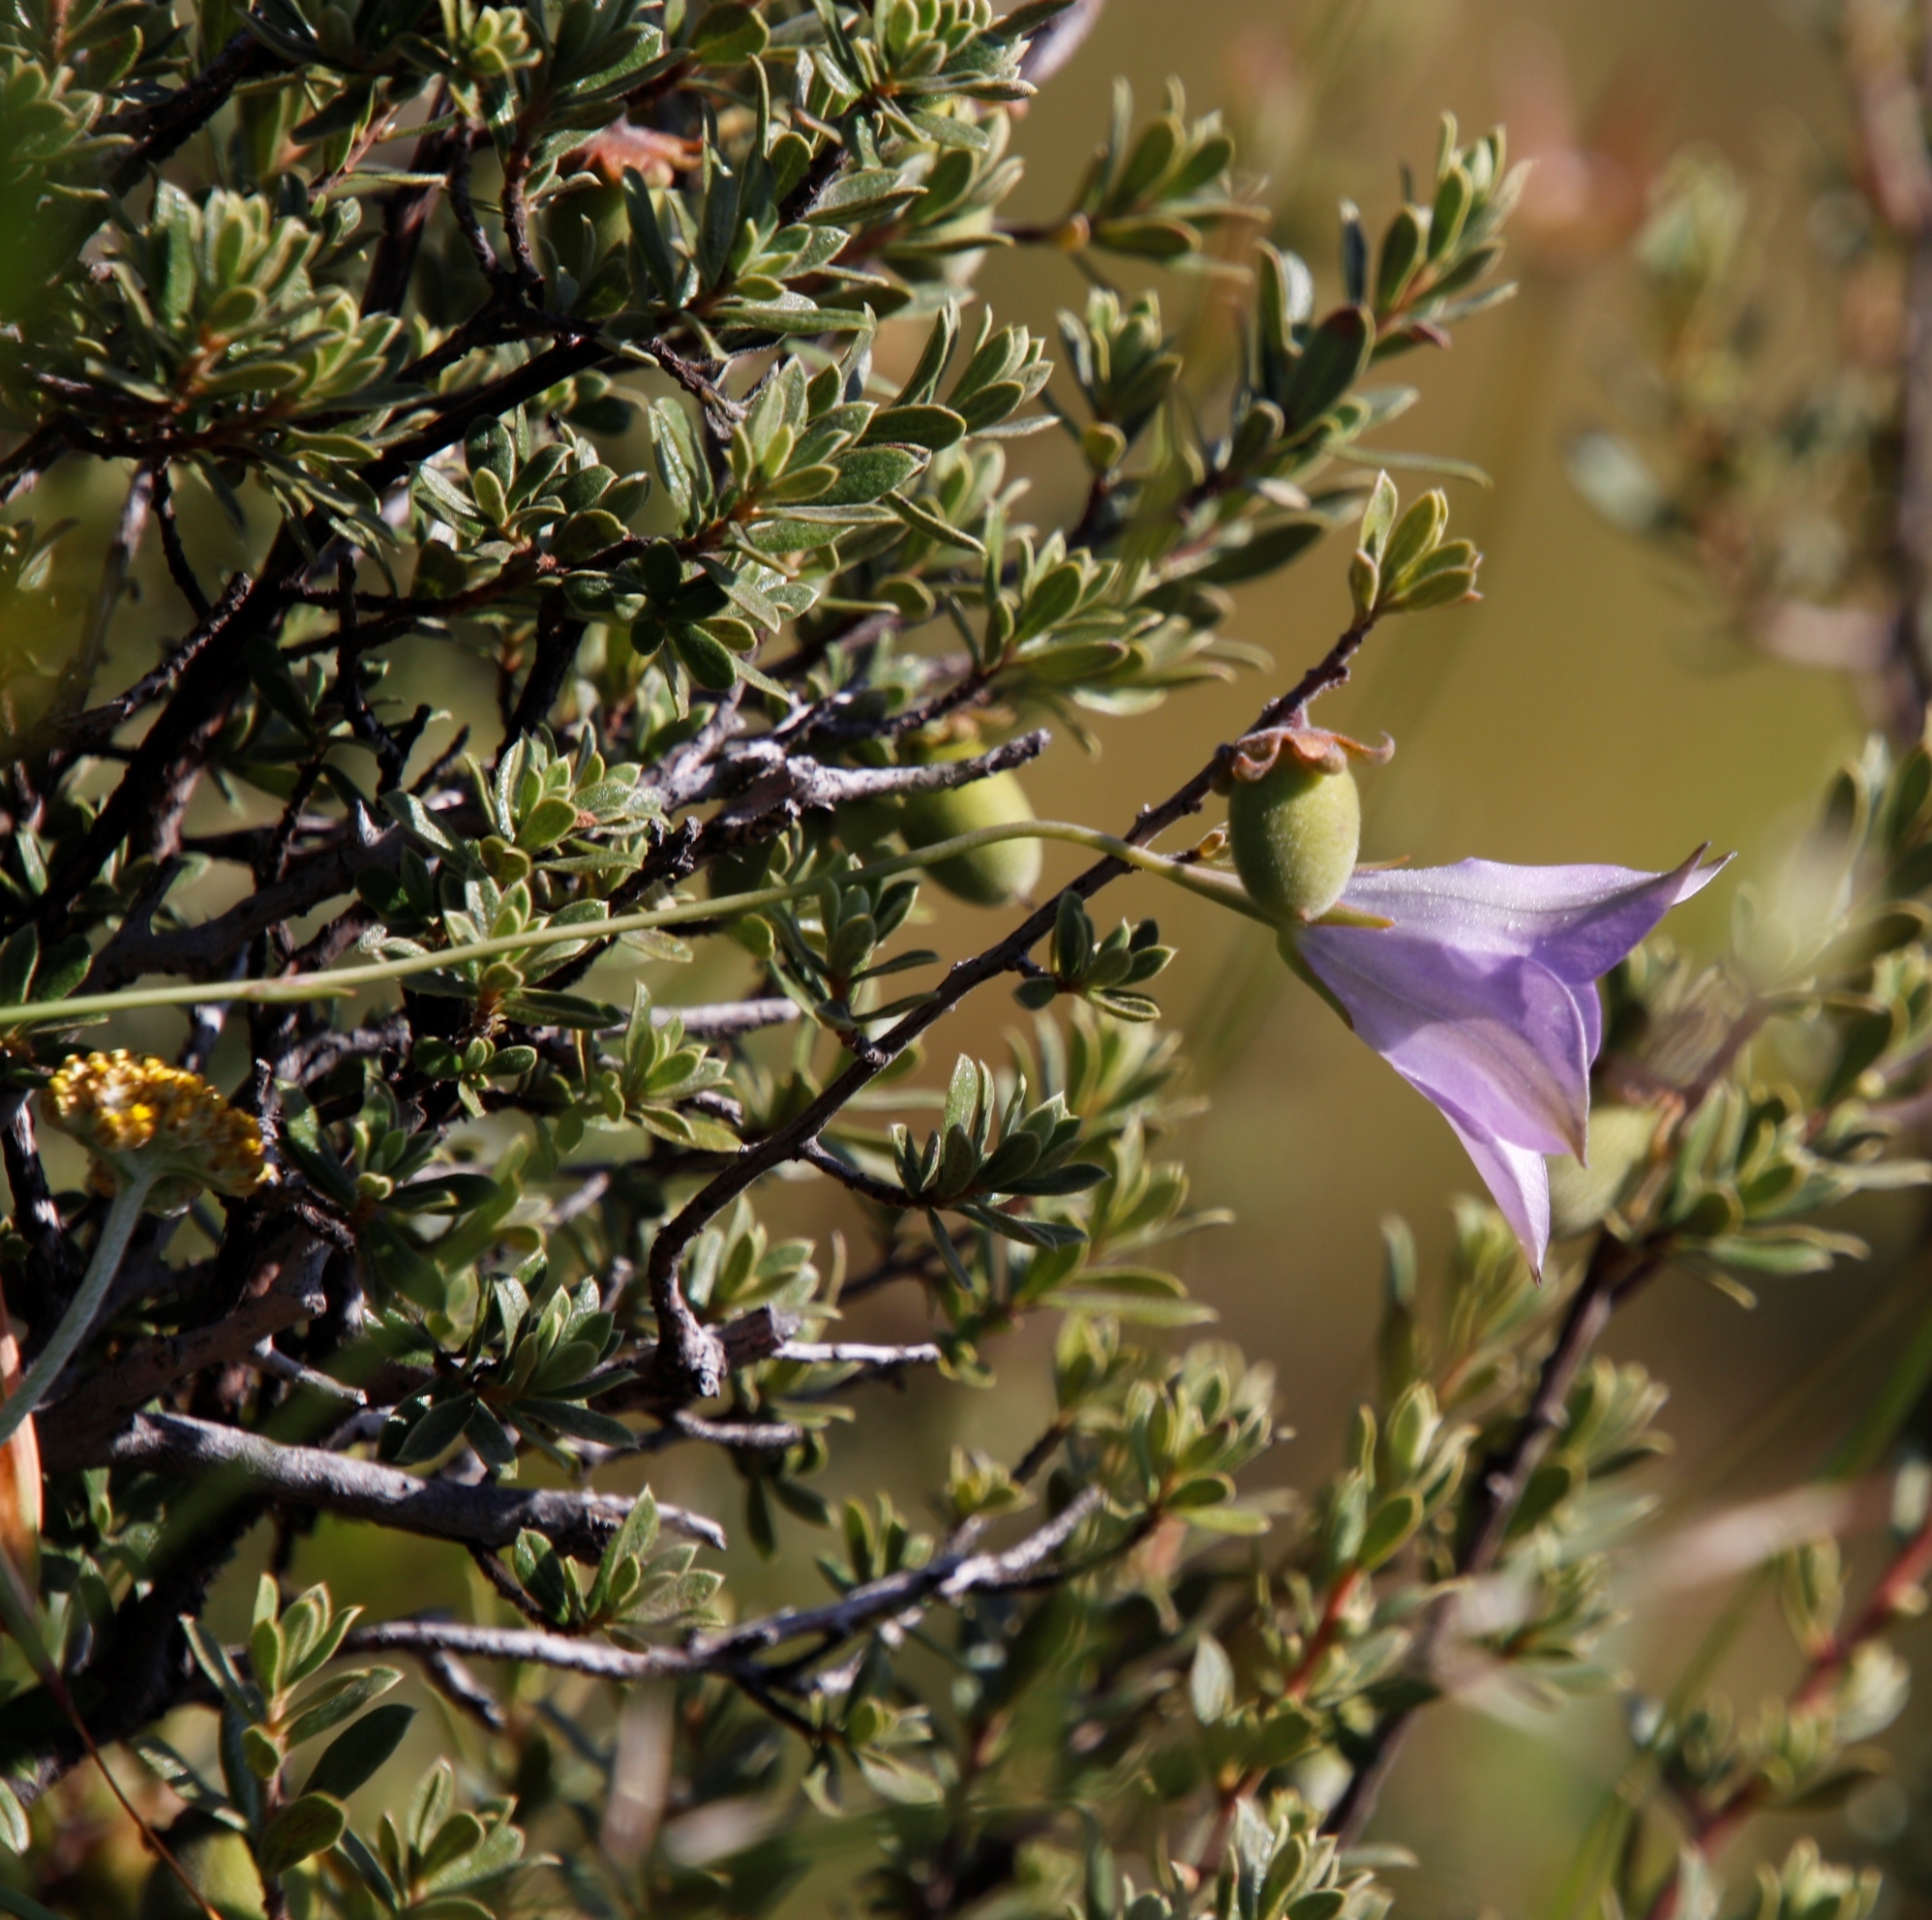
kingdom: Plantae
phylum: Tracheophyta
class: Magnoliopsida
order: Asterales
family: Campanulaceae
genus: Wahlenbergia
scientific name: Wahlenbergia krebsii
